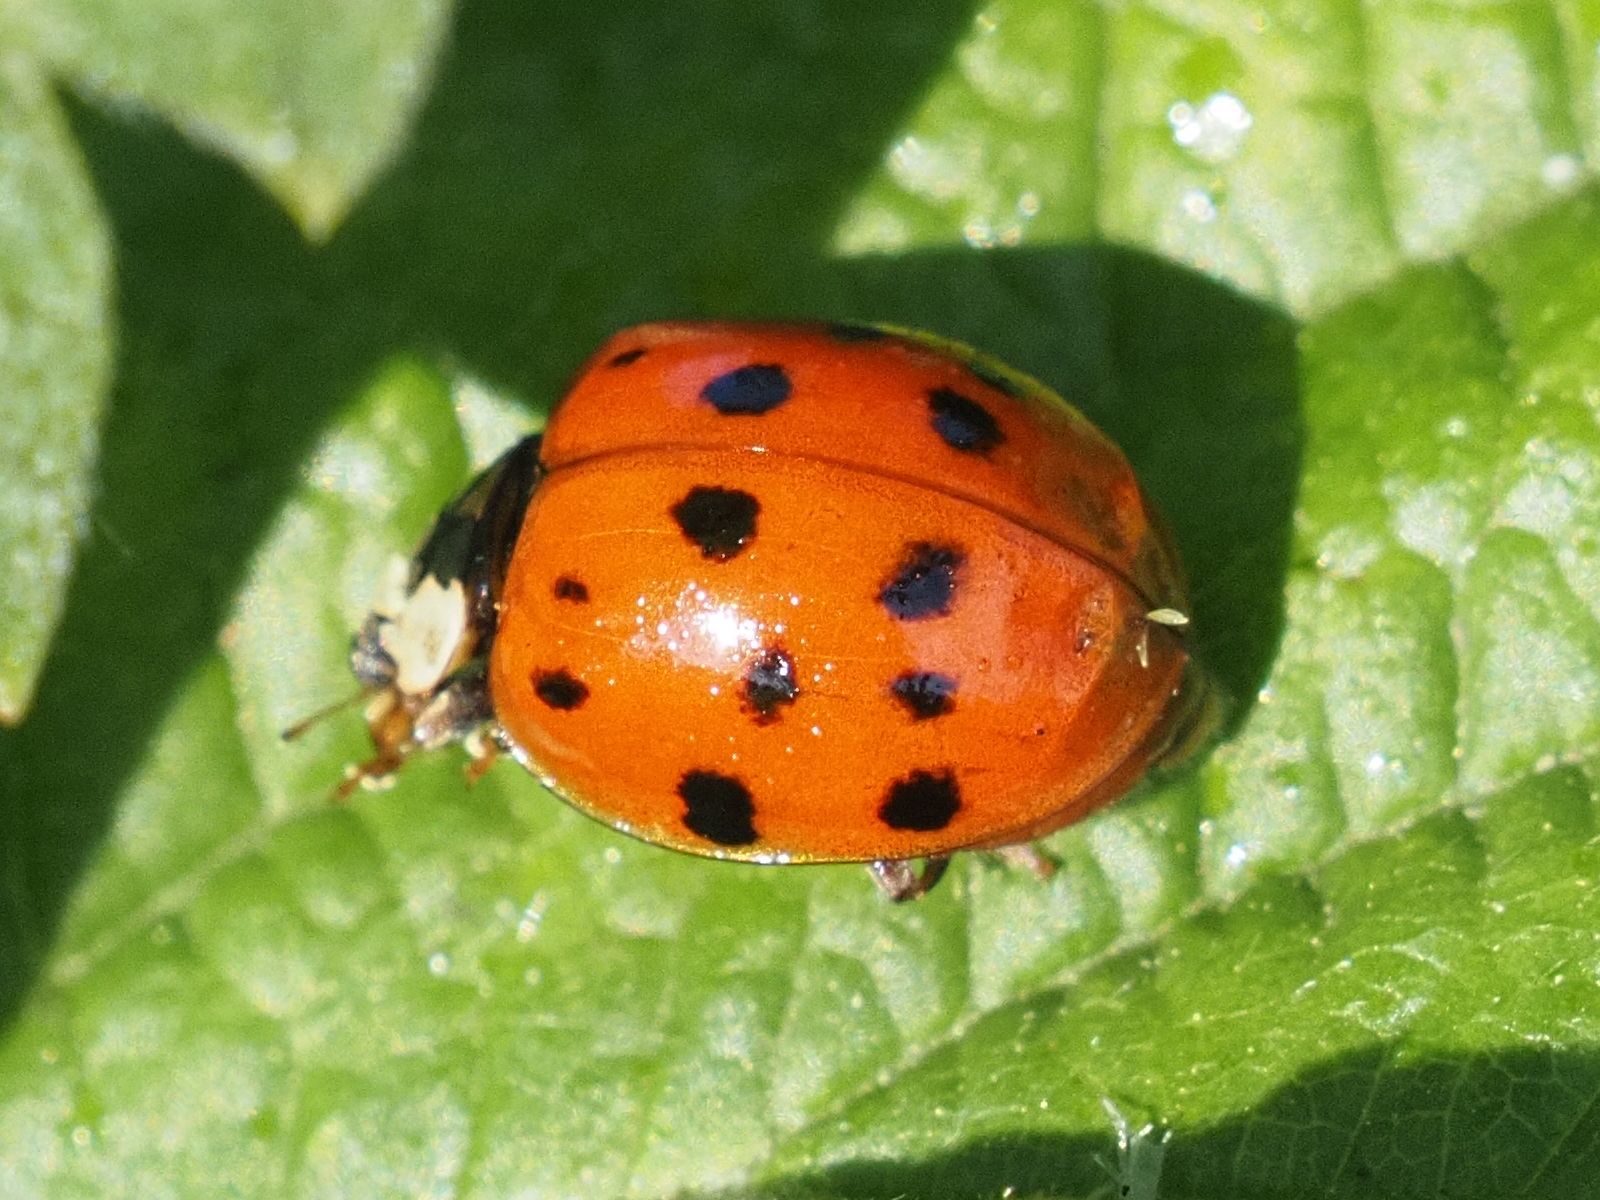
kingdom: Animalia
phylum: Arthropoda
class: Insecta
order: Coleoptera
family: Coccinellidae
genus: Harmonia
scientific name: Harmonia axyridis
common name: Harlequin ladybird
